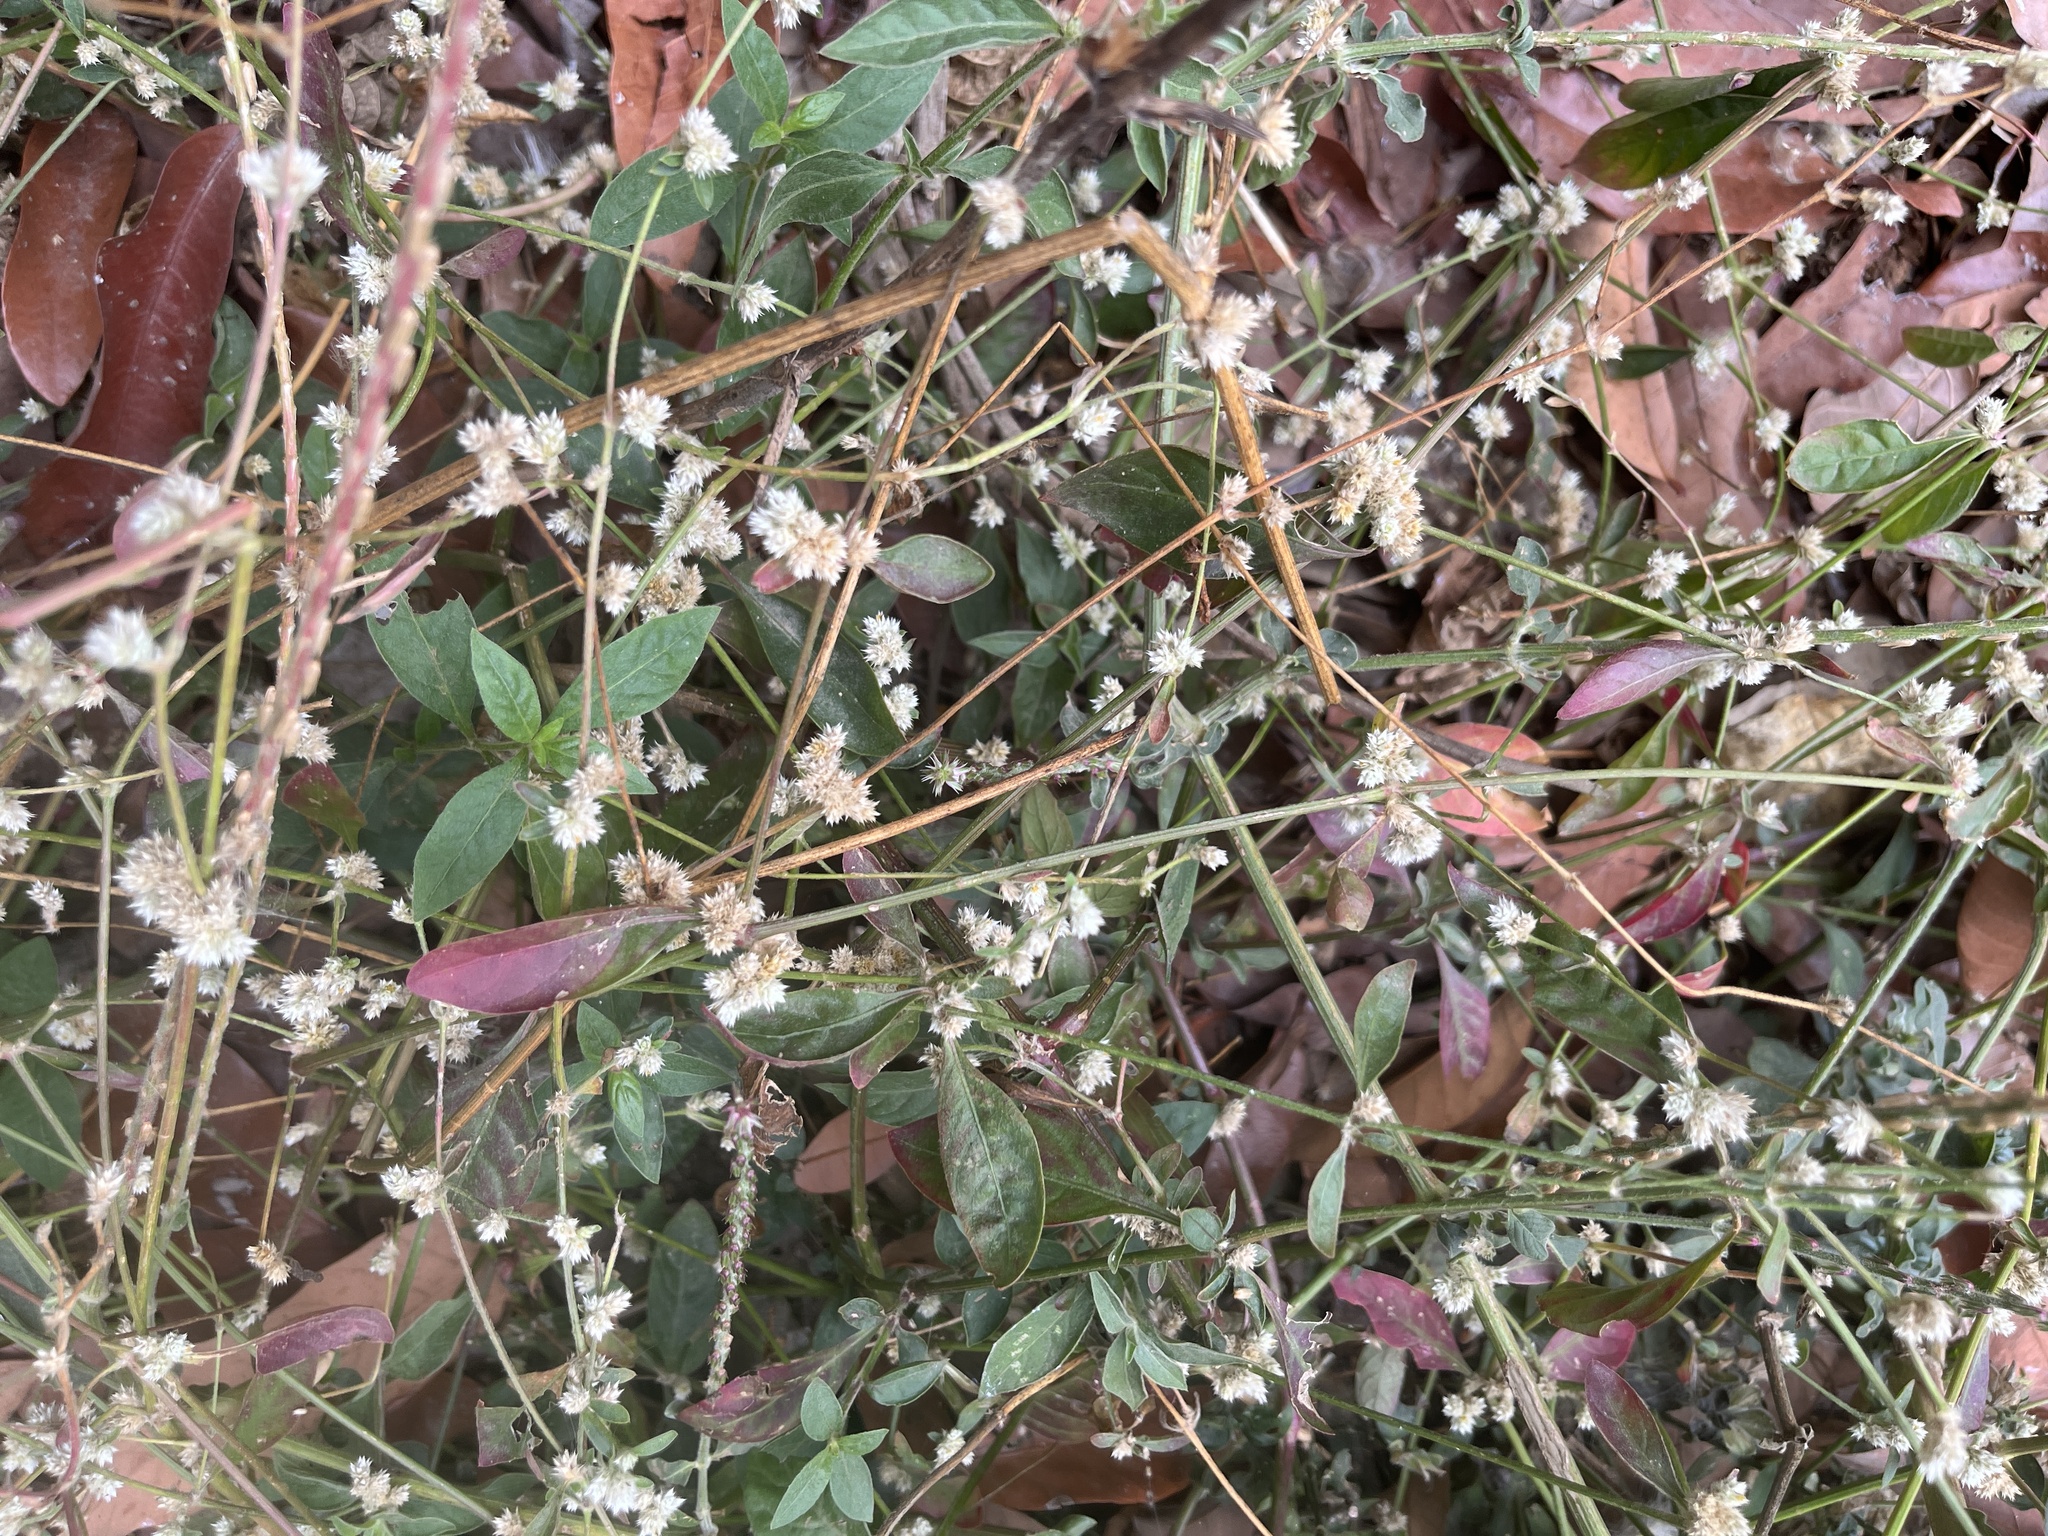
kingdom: Plantae
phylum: Tracheophyta
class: Magnoliopsida
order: Caryophyllales
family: Amaranthaceae
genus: Alternanthera
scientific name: Alternanthera bettzickiana
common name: Calico-plant
